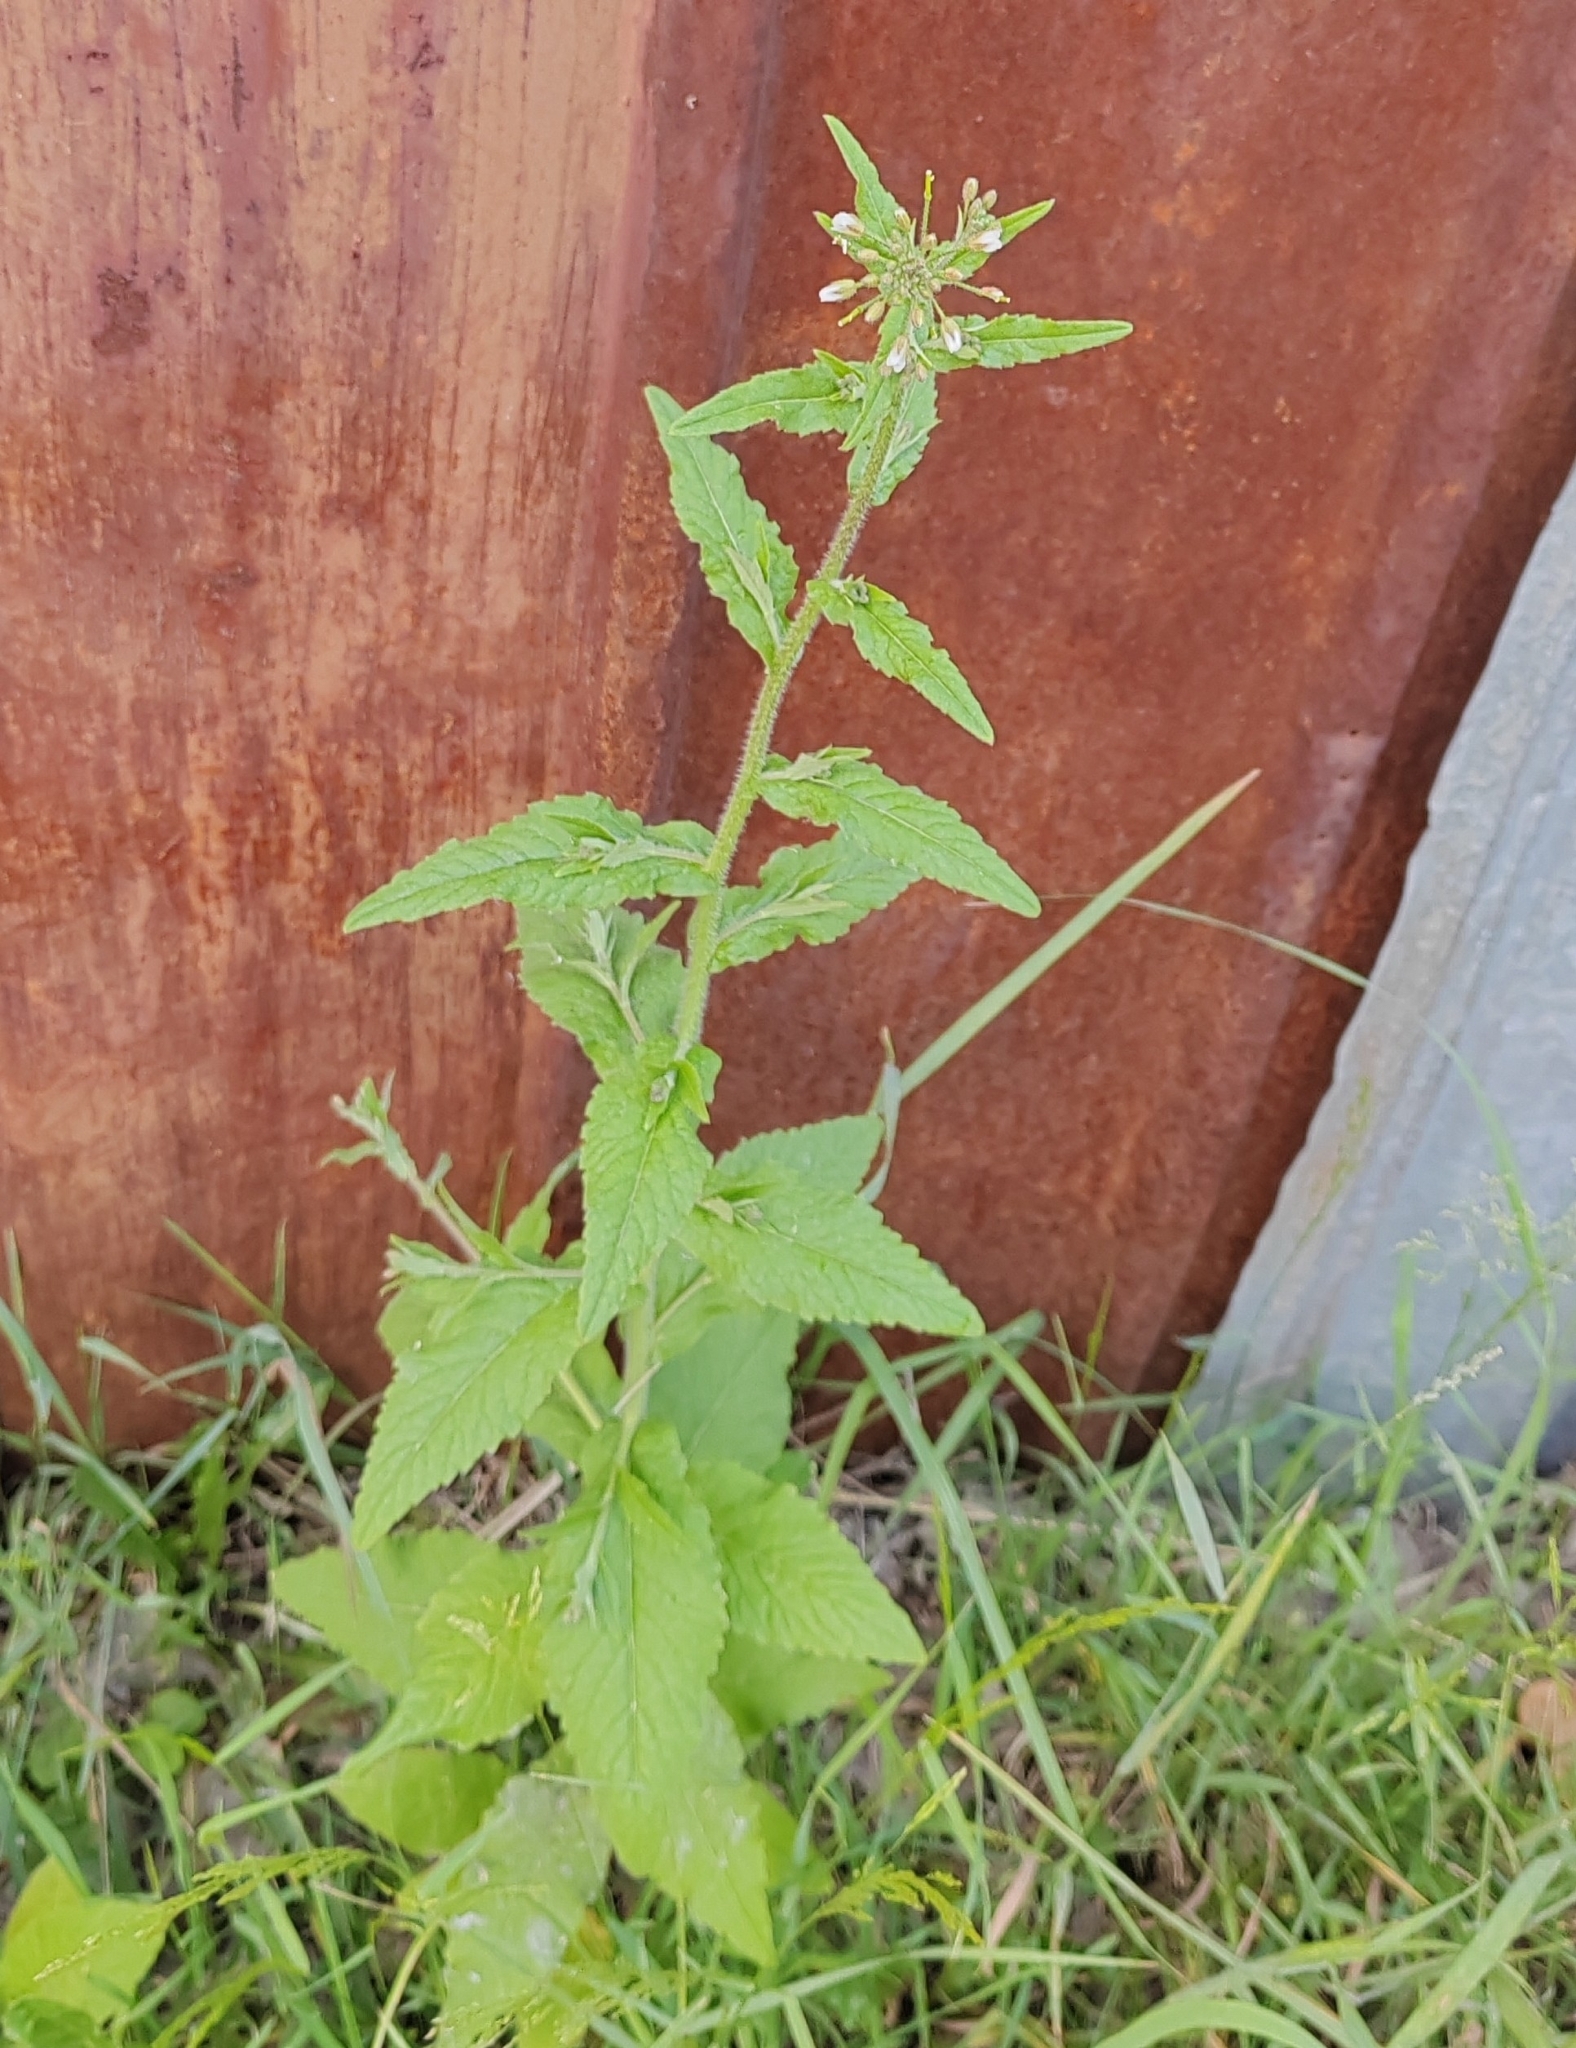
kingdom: Plantae
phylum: Tracheophyta
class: Magnoliopsida
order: Brassicales
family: Brassicaceae
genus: Catolobus
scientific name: Catolobus pendulus
